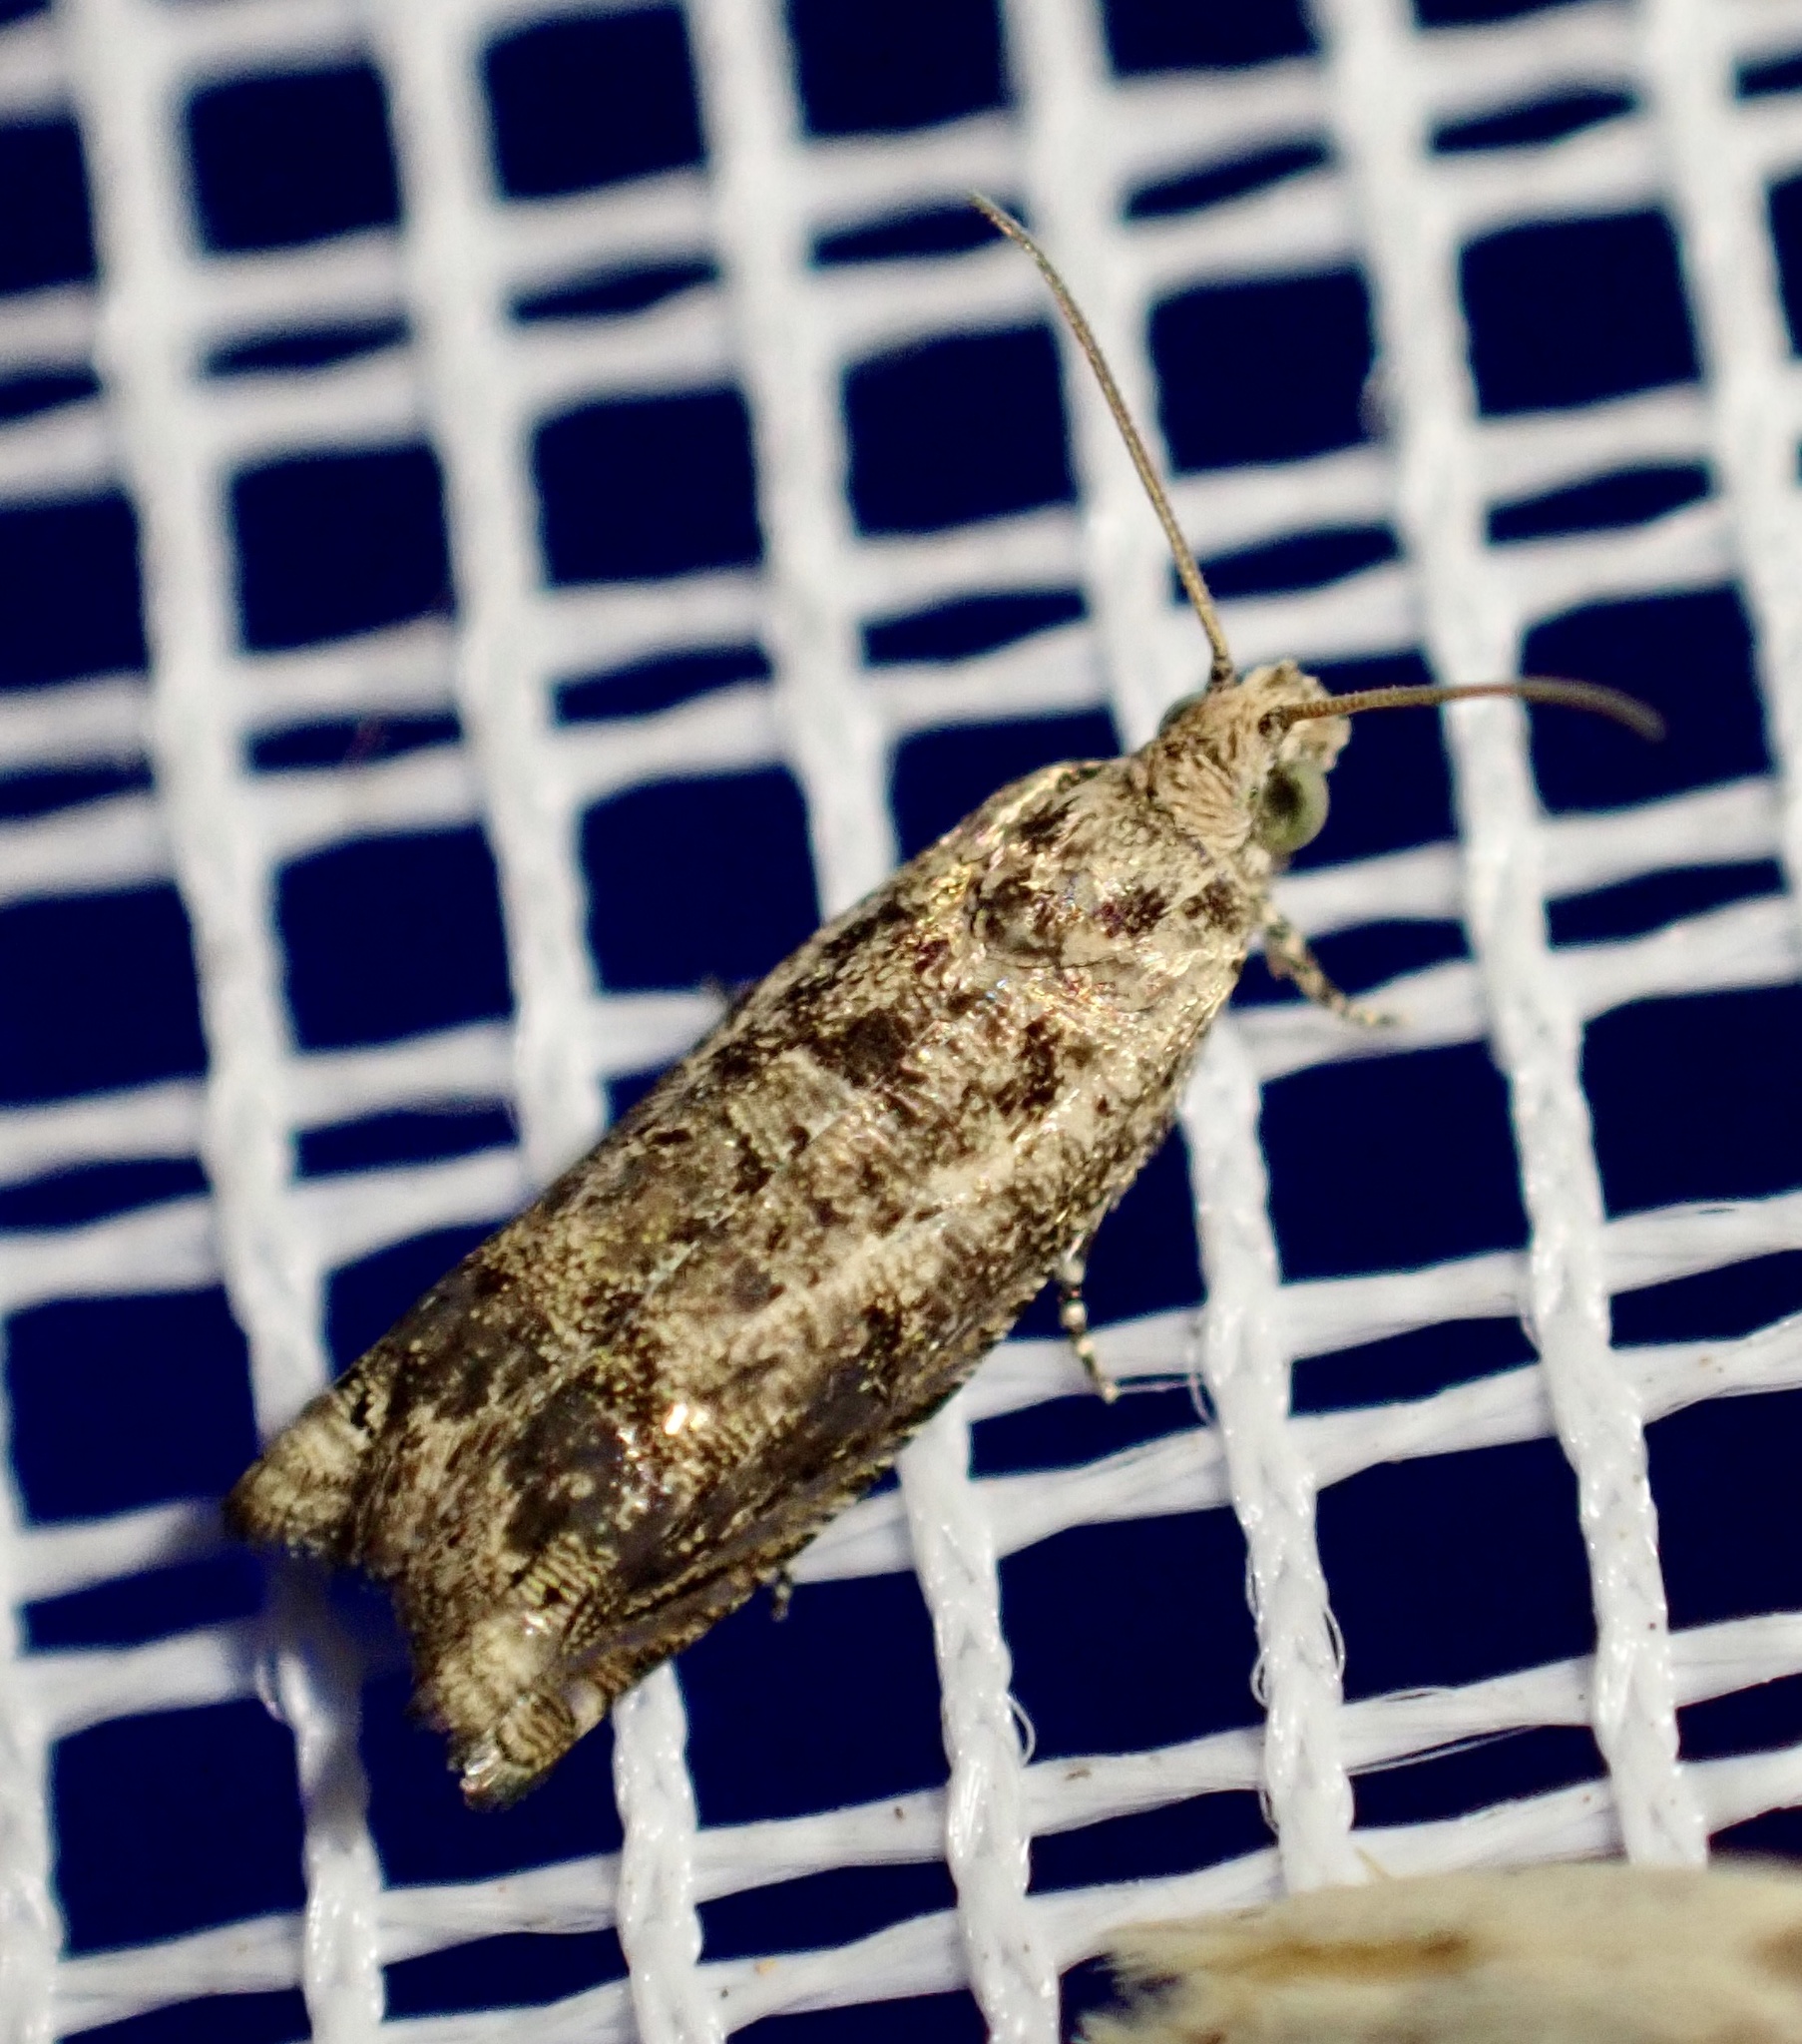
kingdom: Animalia
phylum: Arthropoda
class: Insecta
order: Lepidoptera
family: Tortricidae
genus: Coniostola
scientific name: Coniostola stereoma
